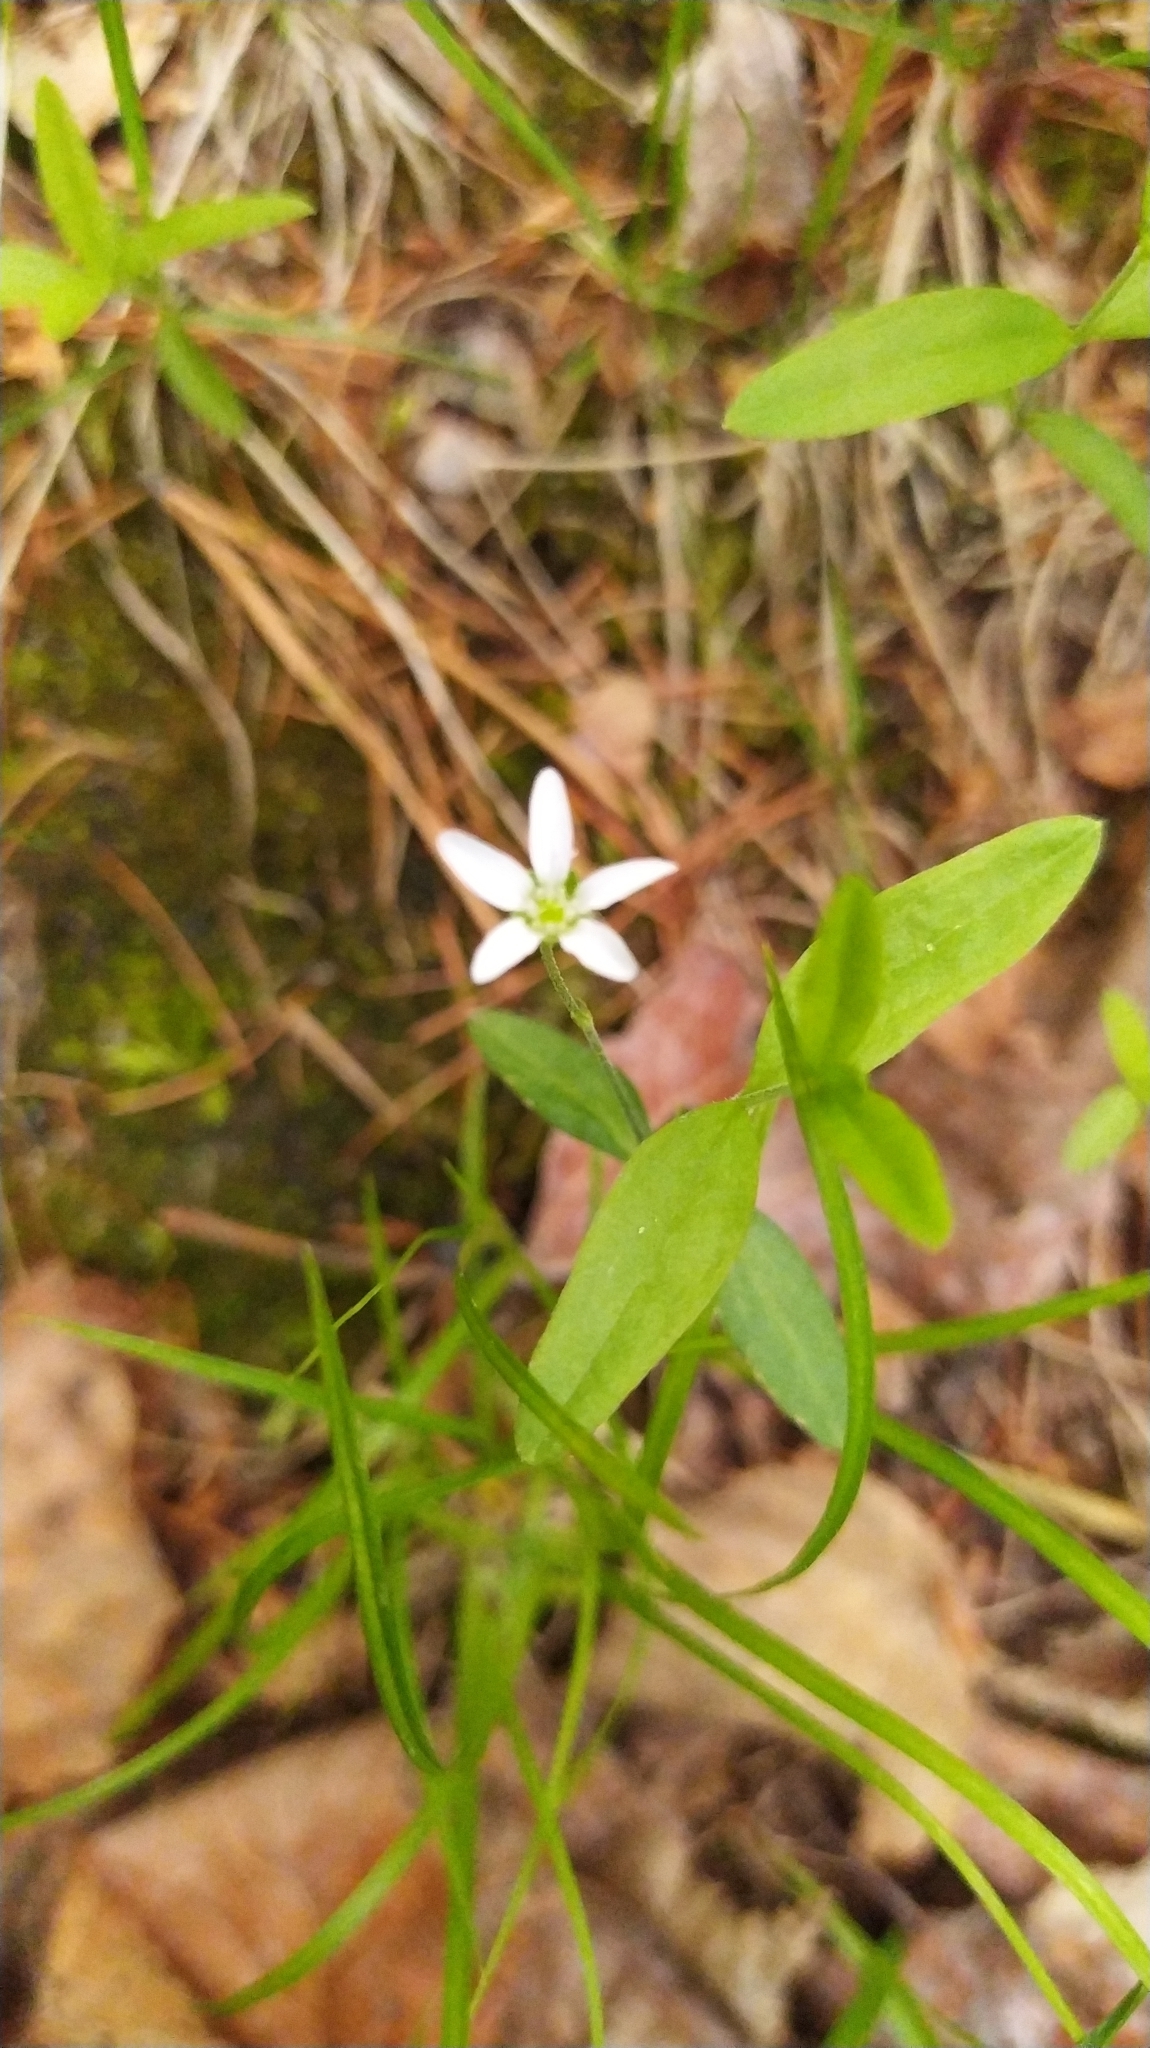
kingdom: Plantae
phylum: Tracheophyta
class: Magnoliopsida
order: Caryophyllales
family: Caryophyllaceae
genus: Moehringia
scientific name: Moehringia lateriflora
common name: Blunt-leaved sandwort
